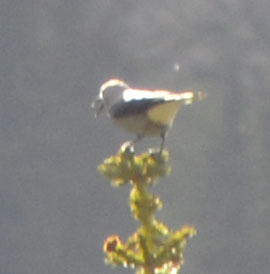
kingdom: Animalia
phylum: Chordata
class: Aves
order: Passeriformes
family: Corvidae
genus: Nucifraga
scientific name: Nucifraga columbiana
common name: Clark's nutcracker
